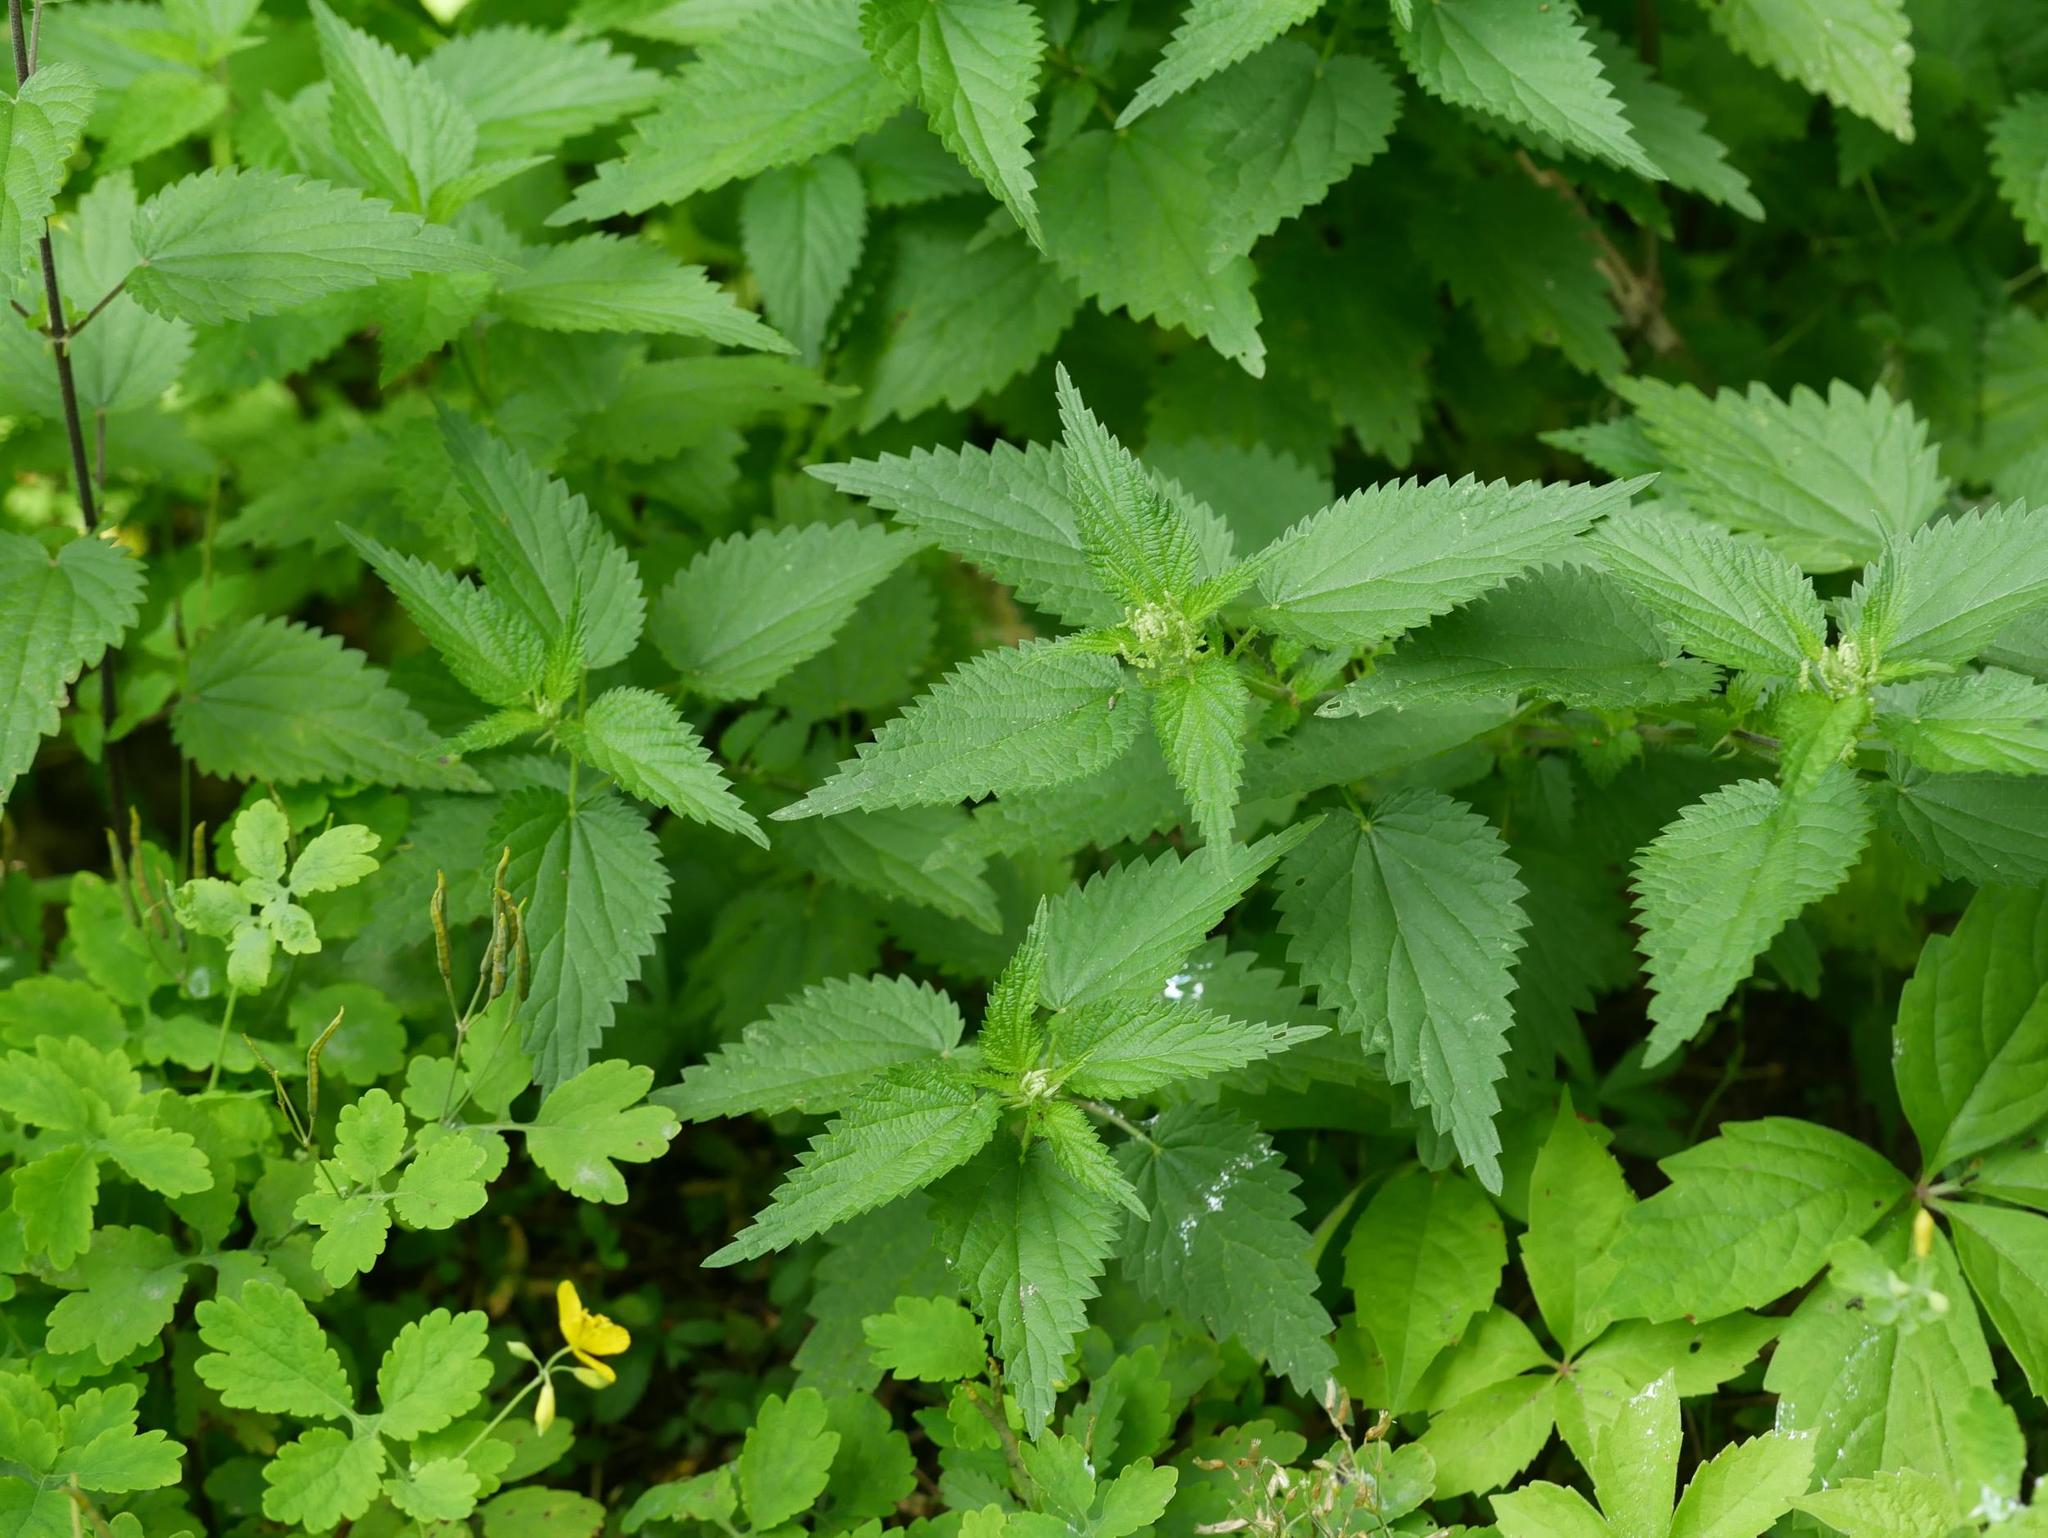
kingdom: Plantae
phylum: Tracheophyta
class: Magnoliopsida
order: Rosales
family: Urticaceae
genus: Urtica
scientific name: Urtica dioica
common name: Common nettle
